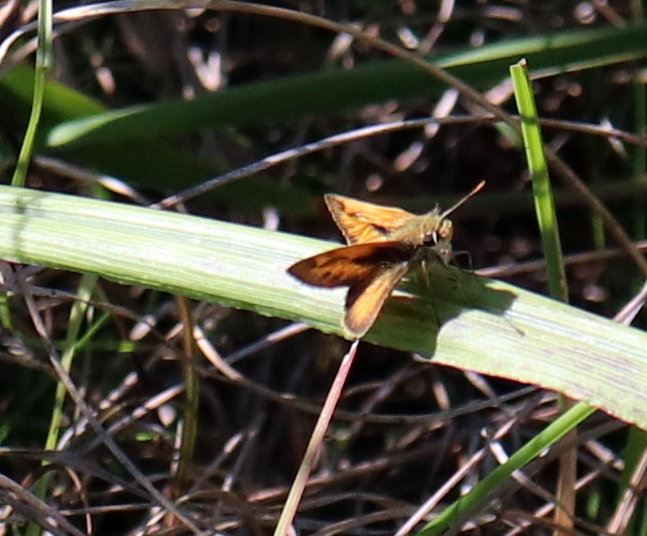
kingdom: Animalia
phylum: Arthropoda
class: Insecta
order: Lepidoptera
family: Hesperiidae
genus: Polites
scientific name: Polites vibex
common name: Whirlabout
